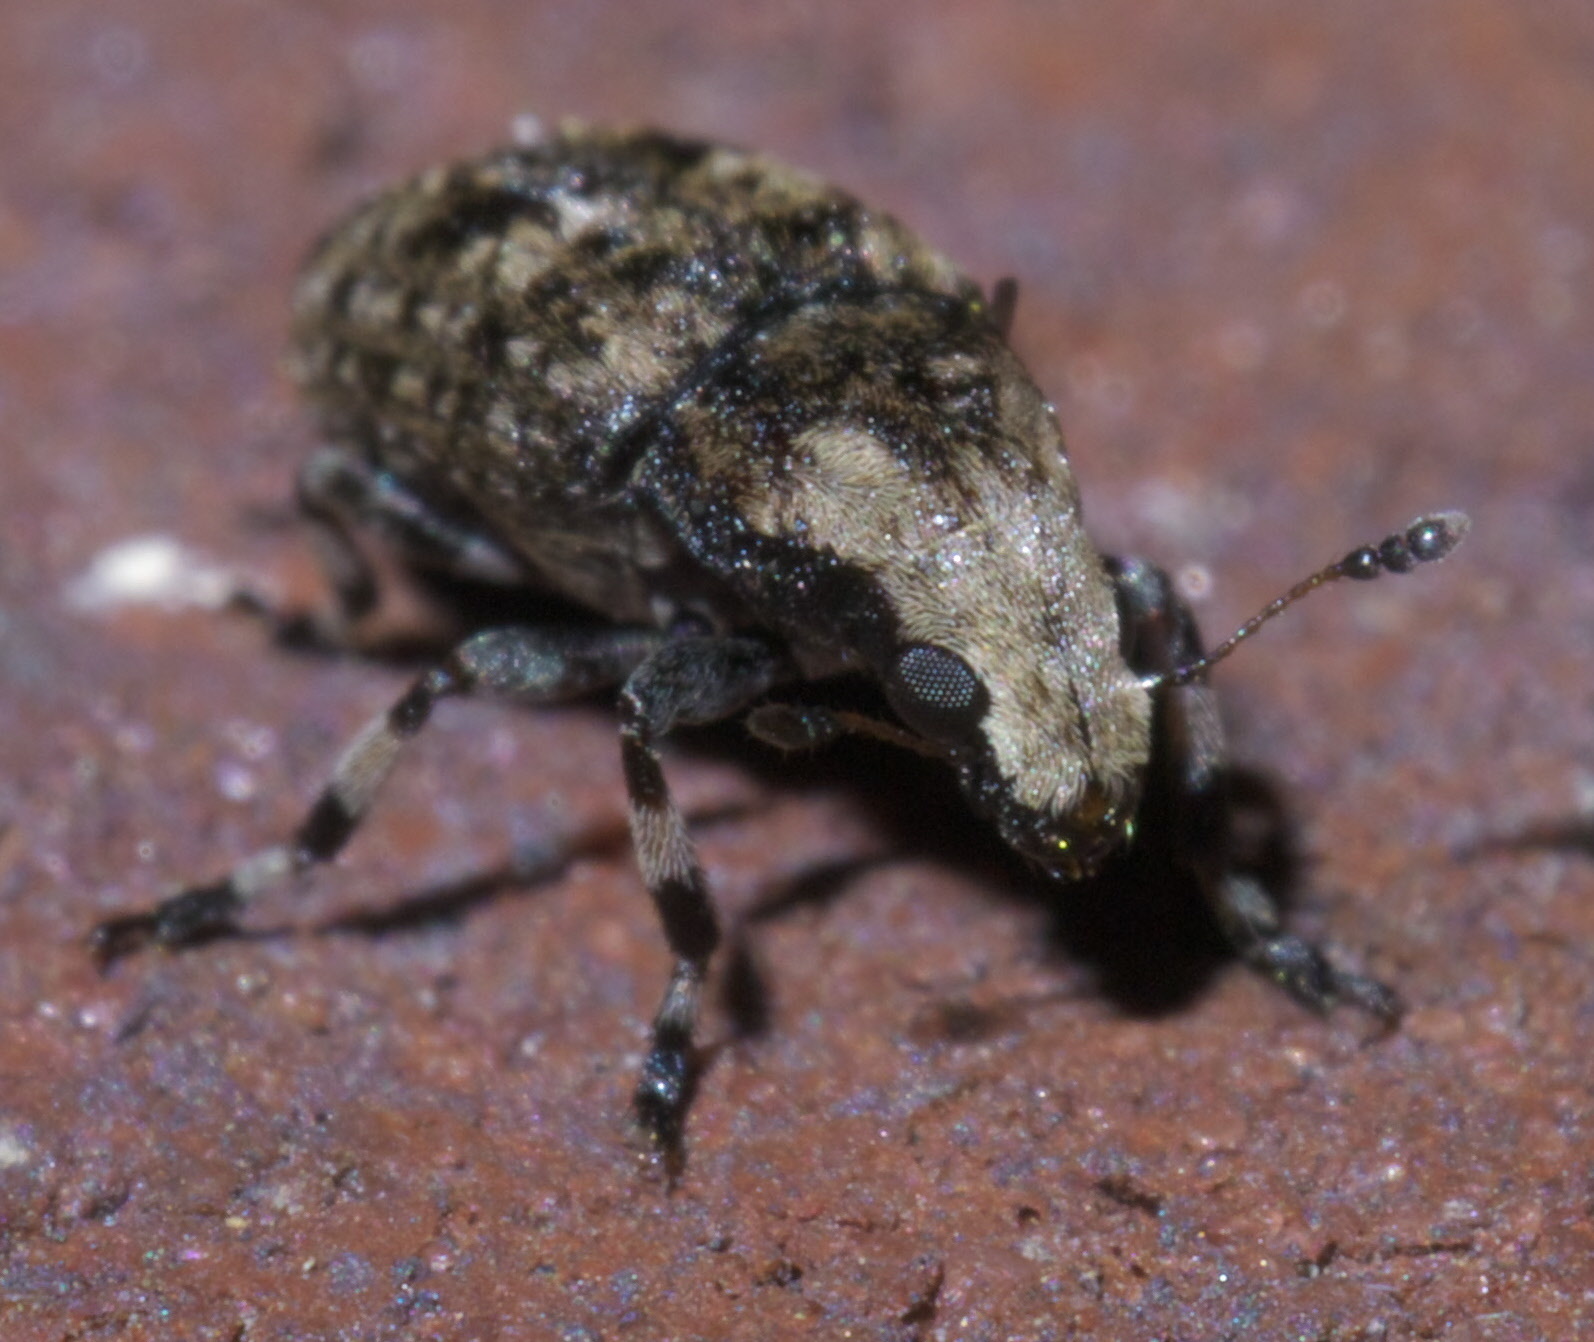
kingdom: Animalia
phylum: Arthropoda
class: Insecta
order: Coleoptera
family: Anthribidae
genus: Euparius
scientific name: Euparius marmoreus
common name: Marbled fungus weevil
